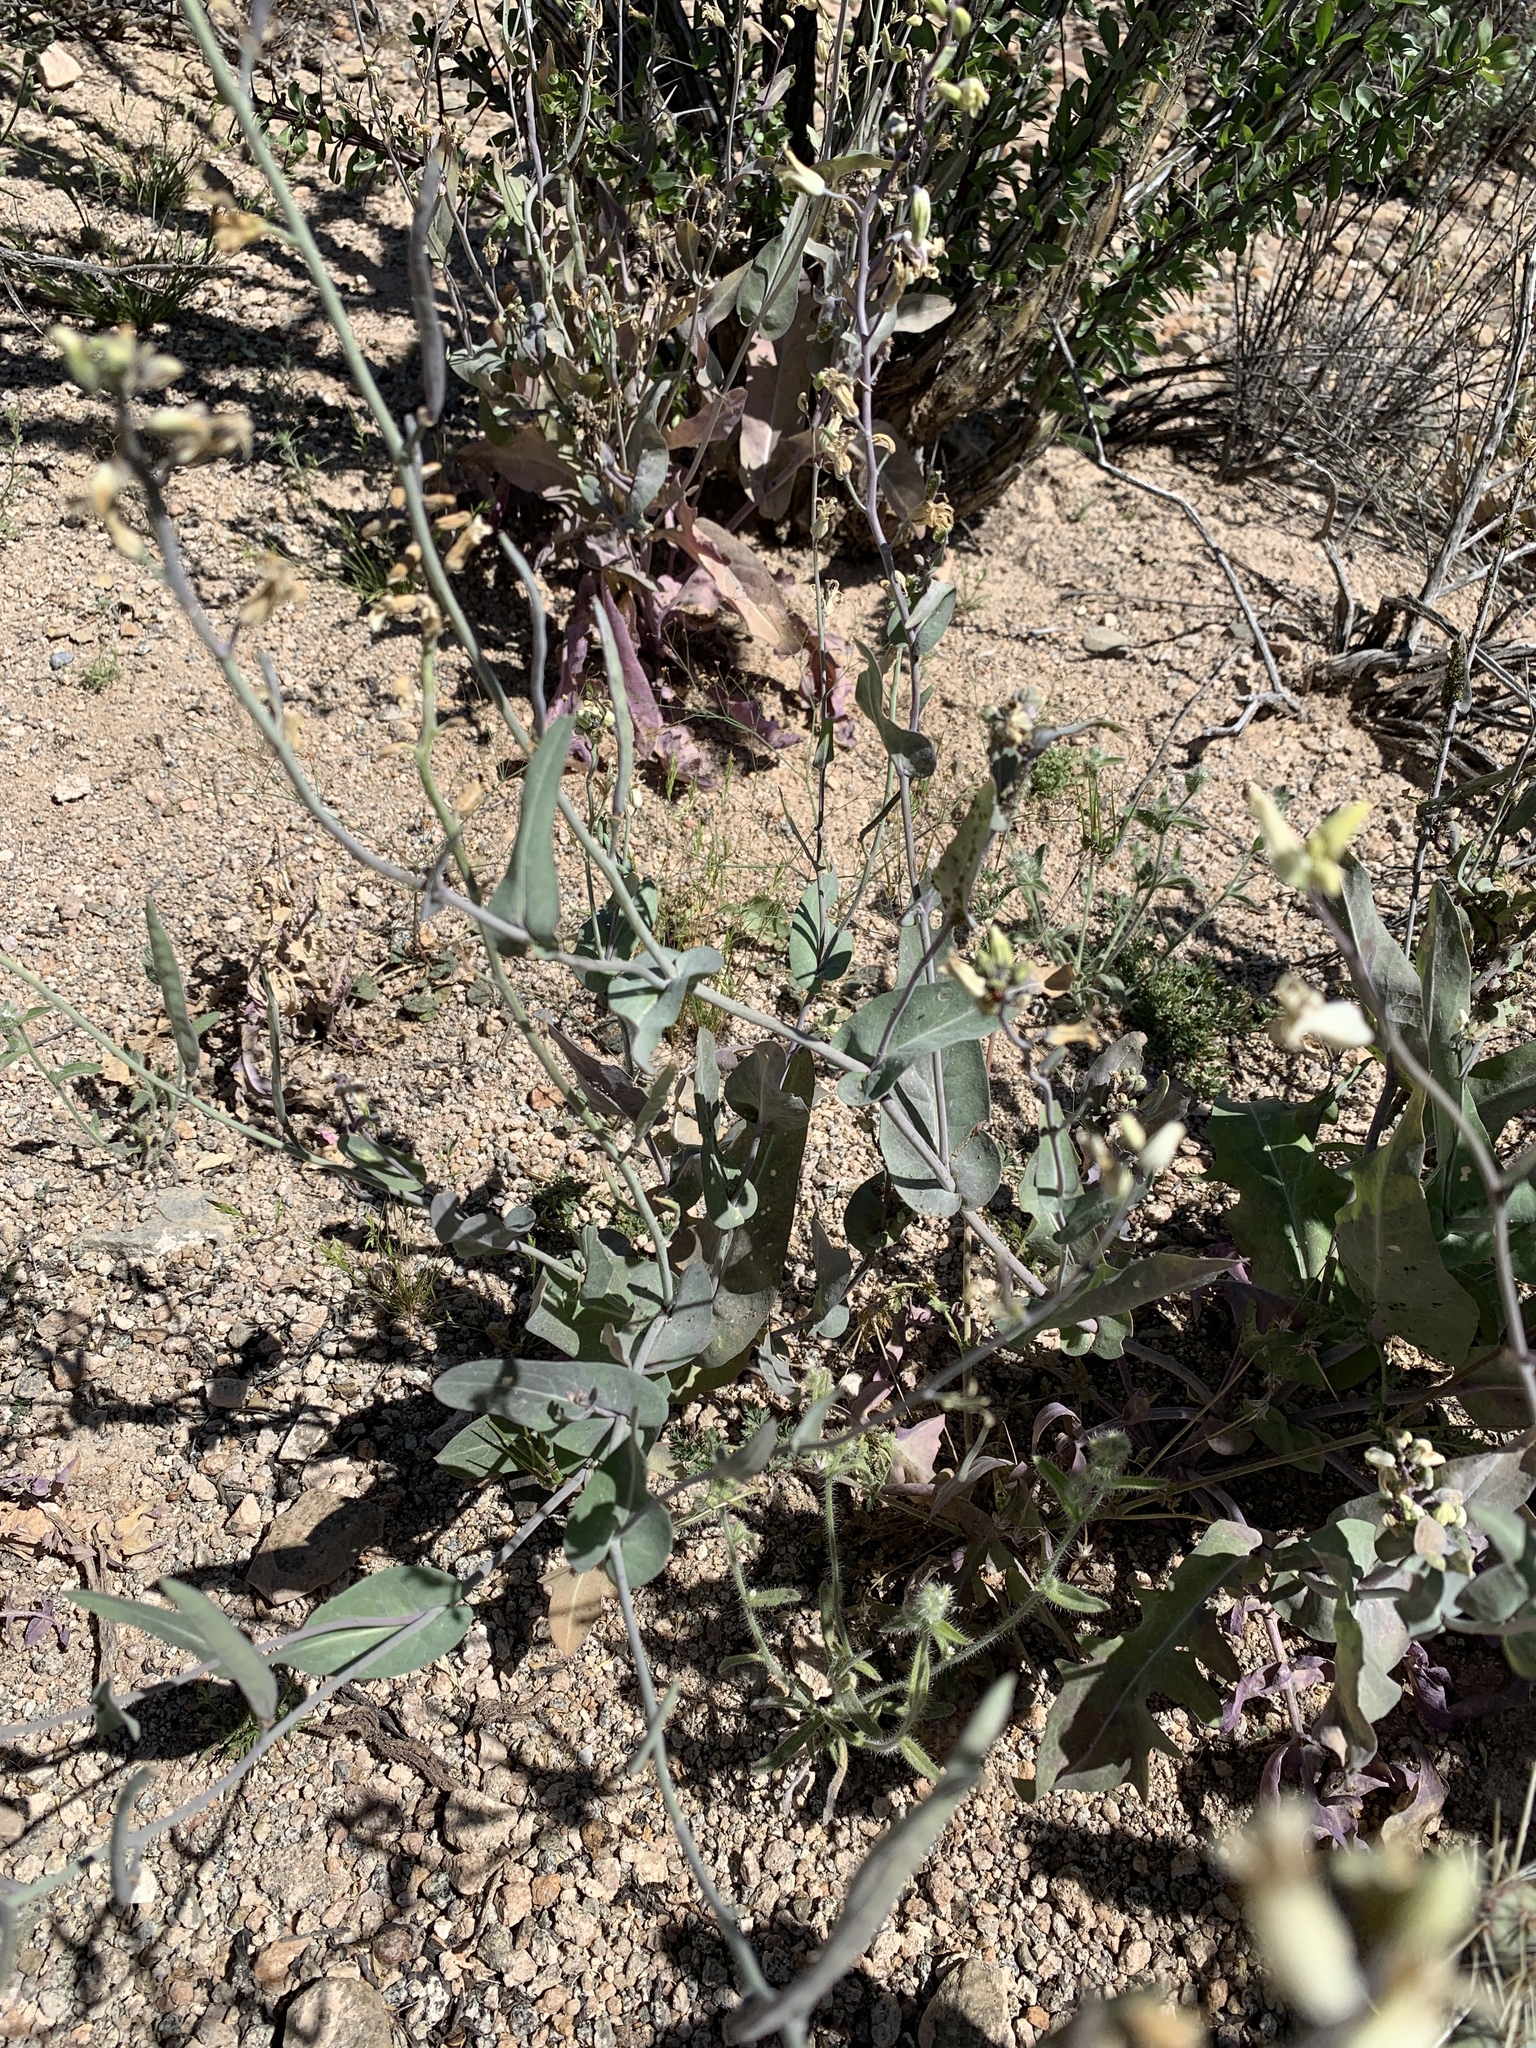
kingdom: Plantae
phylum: Tracheophyta
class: Magnoliopsida
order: Brassicales
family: Brassicaceae
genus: Streptanthus
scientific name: Streptanthus carinatus
